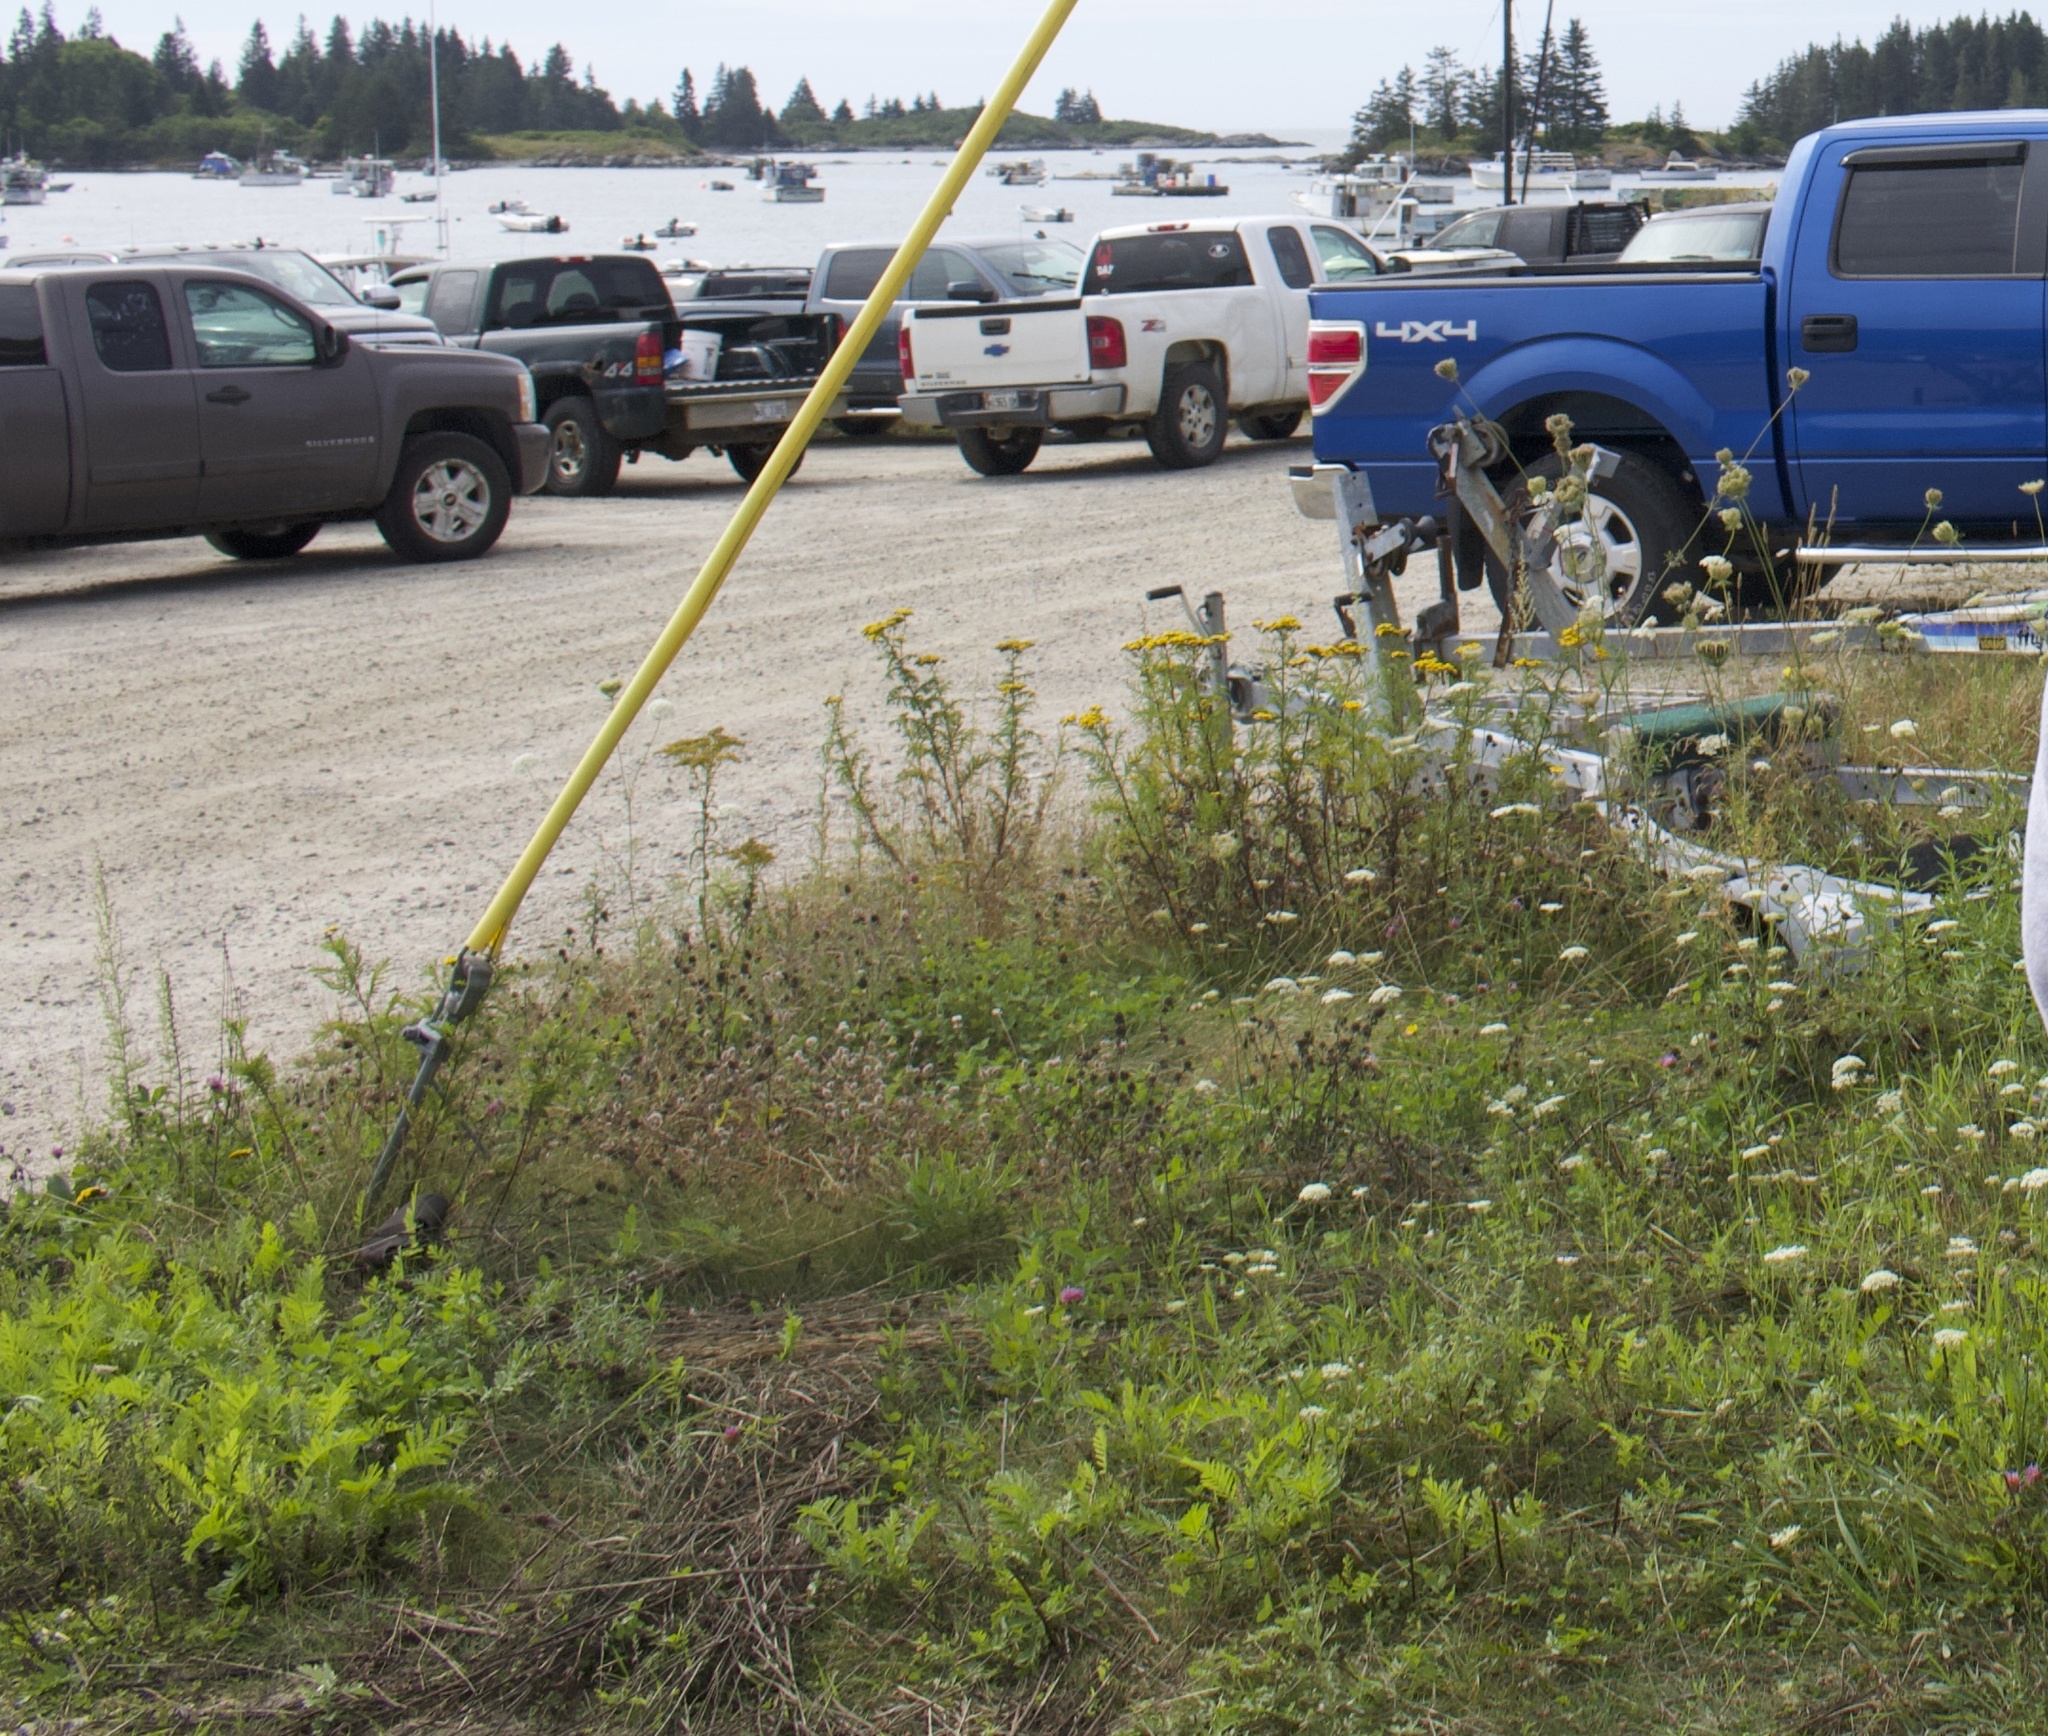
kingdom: Plantae
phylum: Tracheophyta
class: Magnoliopsida
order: Asterales
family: Asteraceae
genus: Tanacetum
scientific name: Tanacetum vulgare
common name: Common tansy
